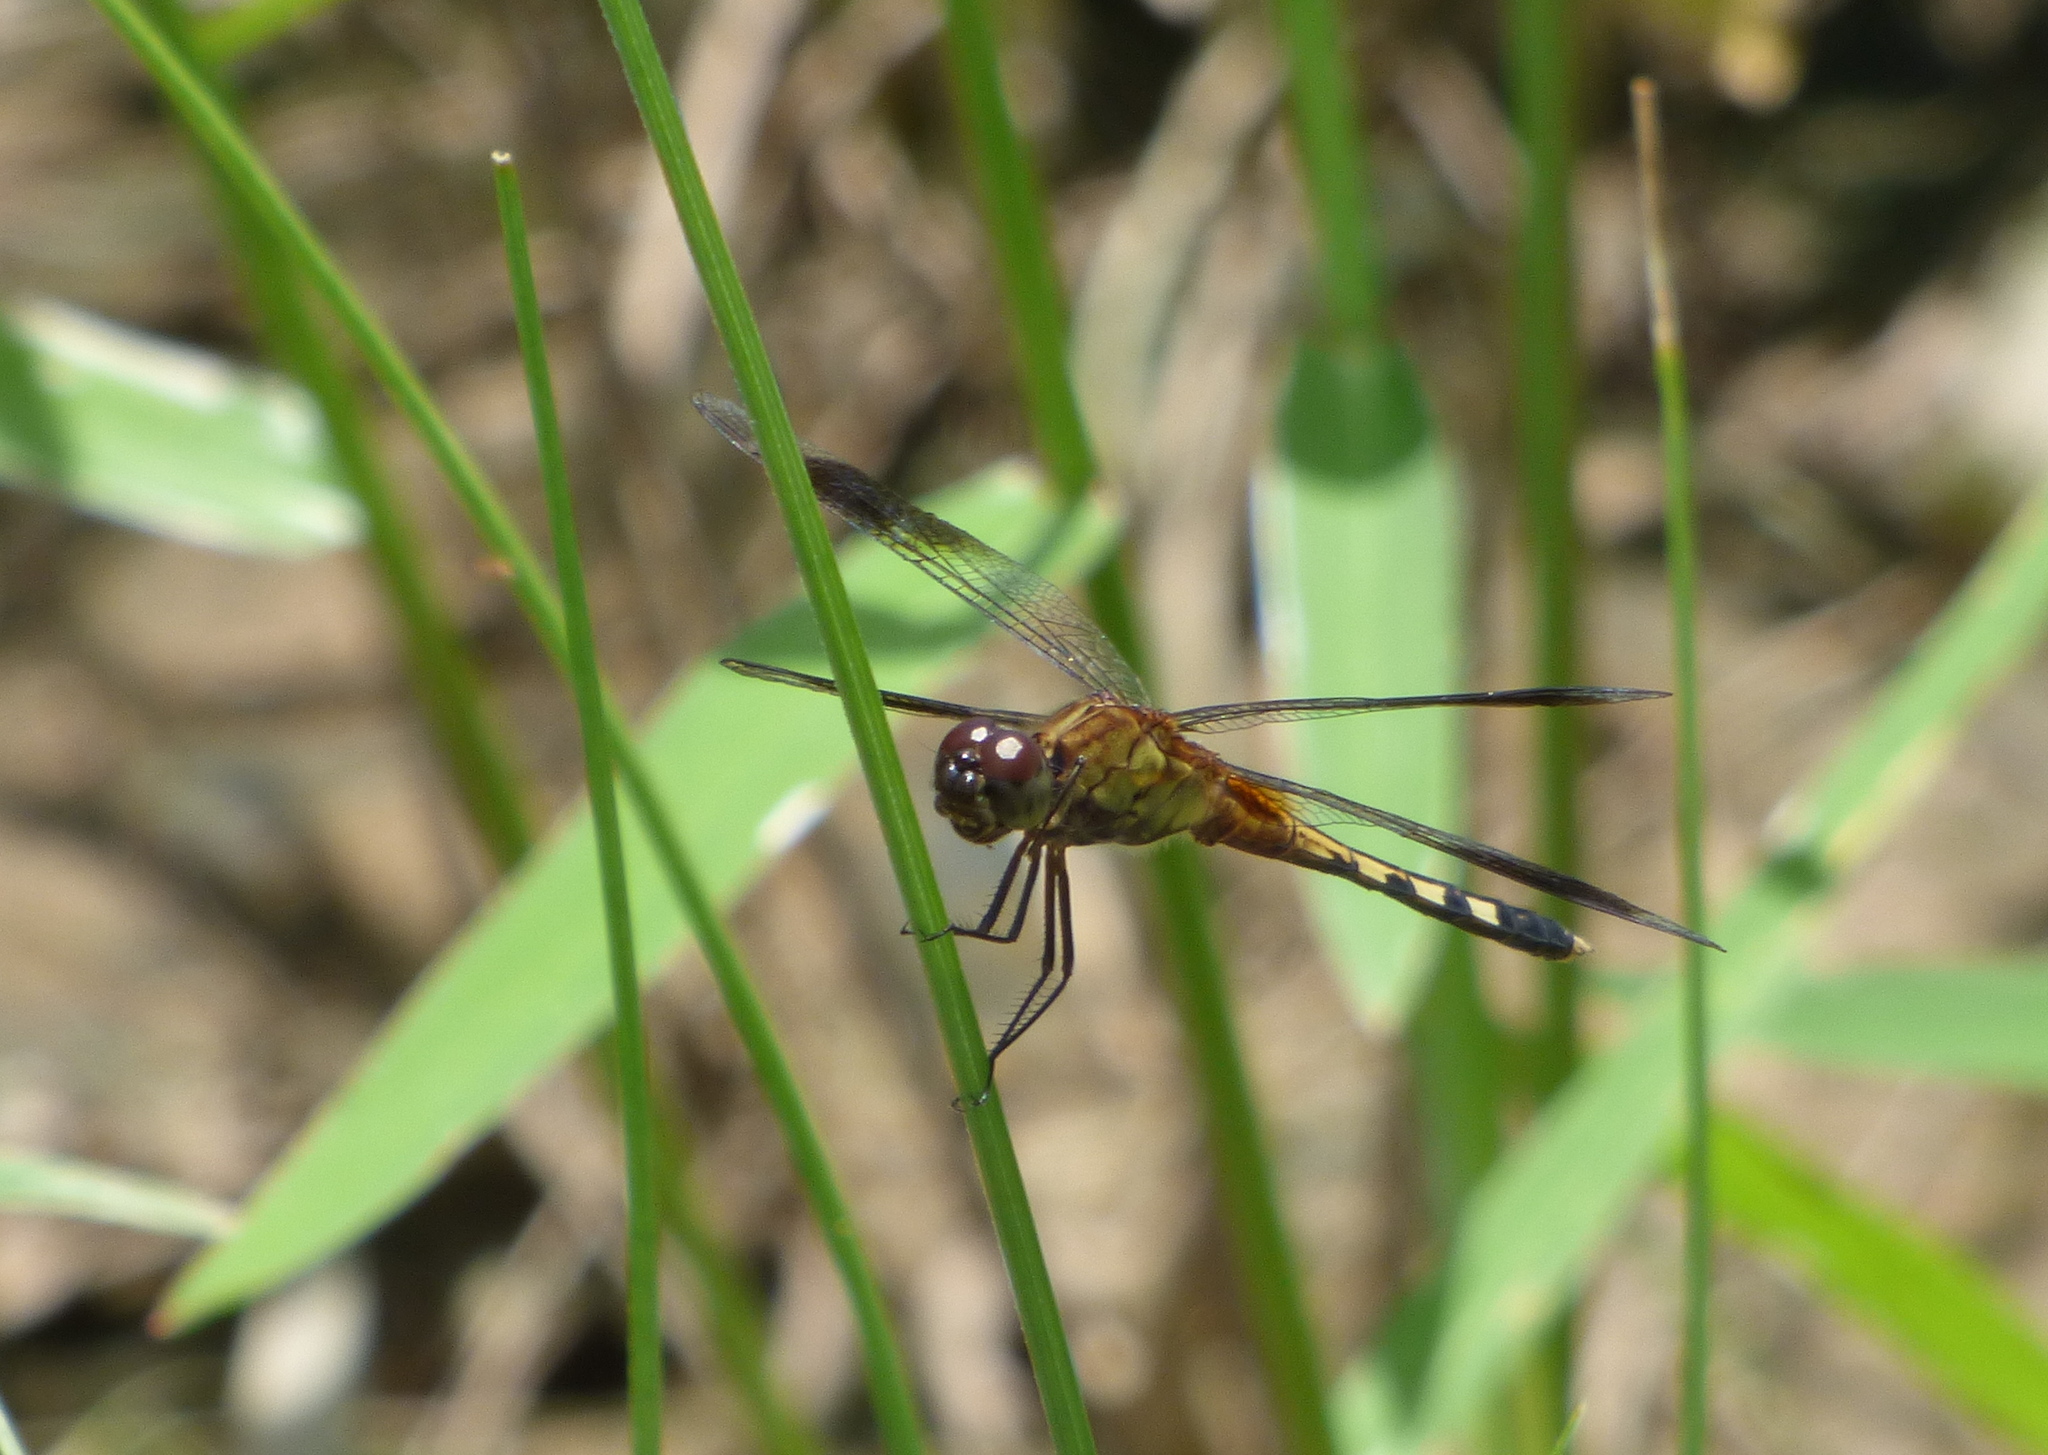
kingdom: Animalia
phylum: Arthropoda
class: Insecta
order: Odonata
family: Libellulidae
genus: Erythrodiplax
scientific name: Erythrodiplax umbrata
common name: Band-winged dragonlet
